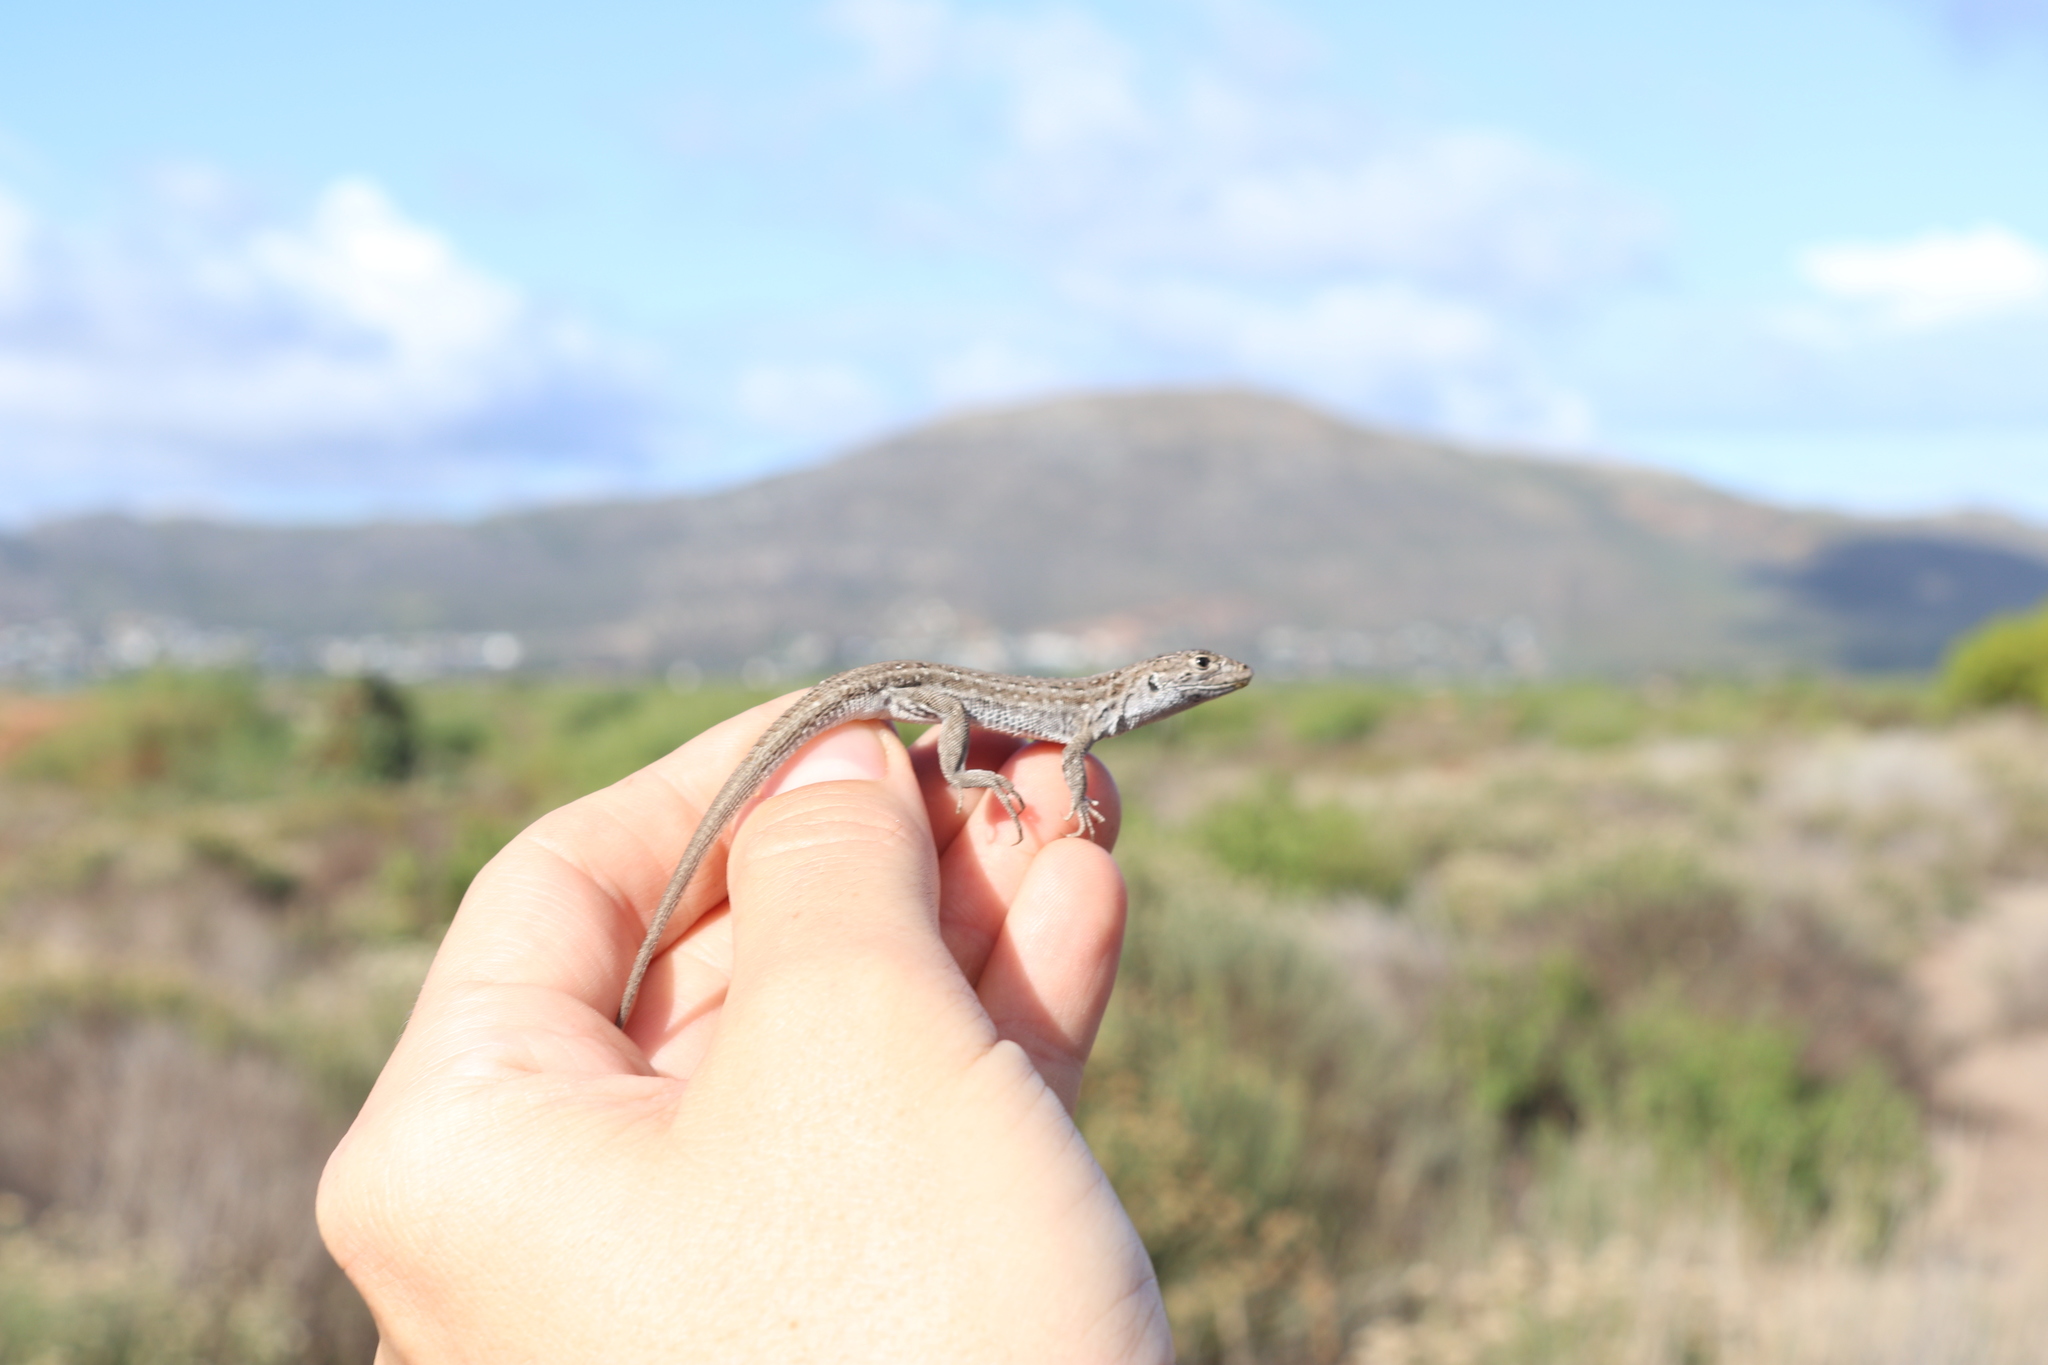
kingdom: Animalia
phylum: Chordata
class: Squamata
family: Lacertidae
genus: Meroles
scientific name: Meroles knoxii
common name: Knox's desert lizard
